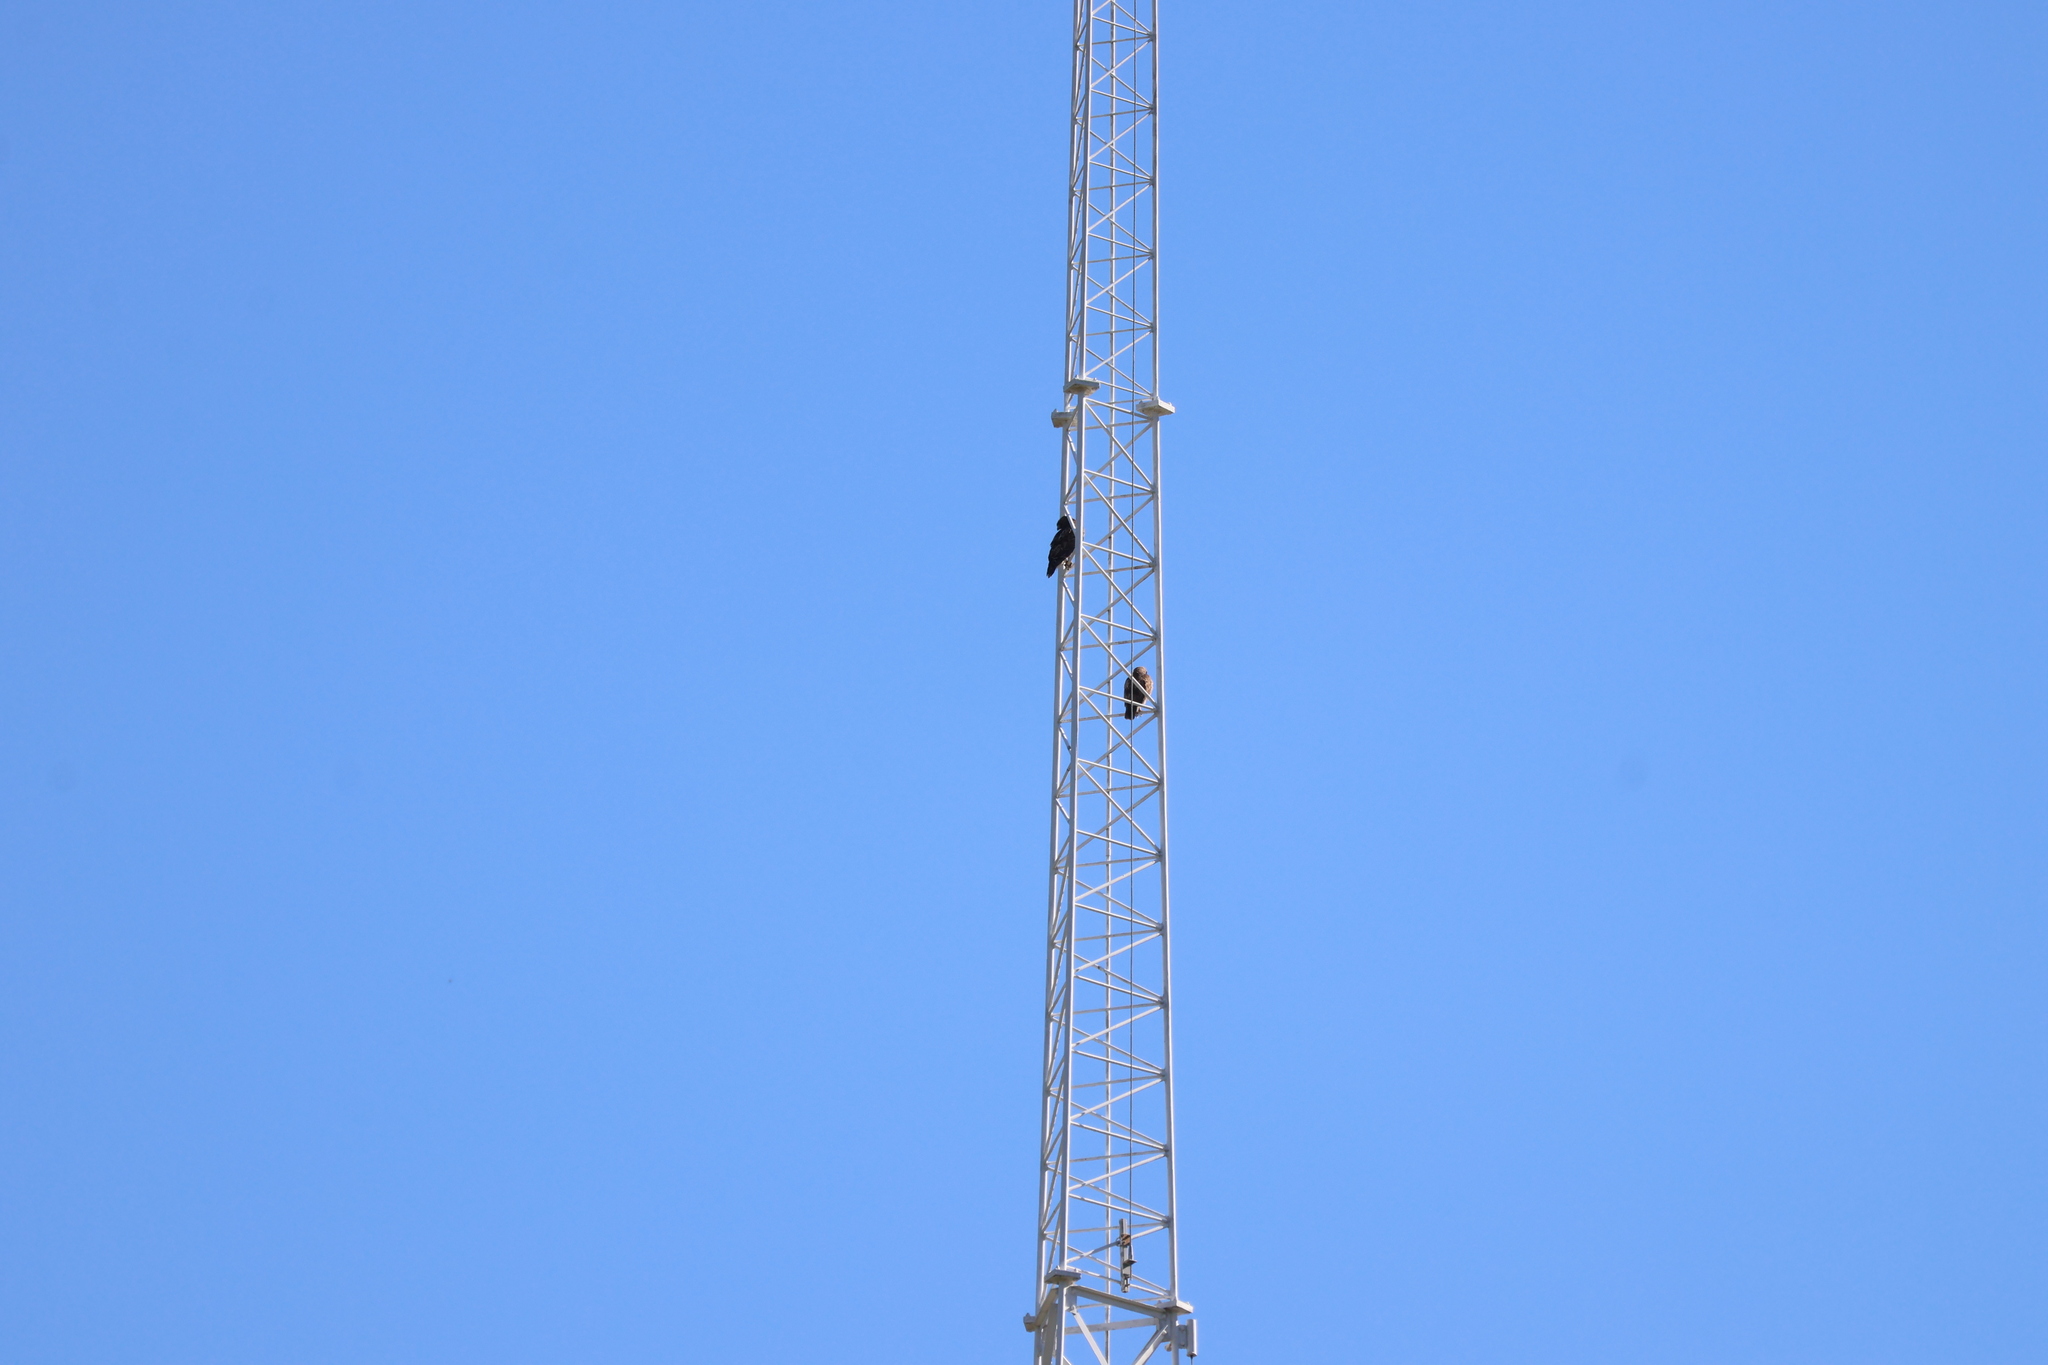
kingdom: Animalia
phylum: Chordata
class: Aves
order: Accipitriformes
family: Accipitridae
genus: Buteo
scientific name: Buteo jamaicensis
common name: Red-tailed hawk
